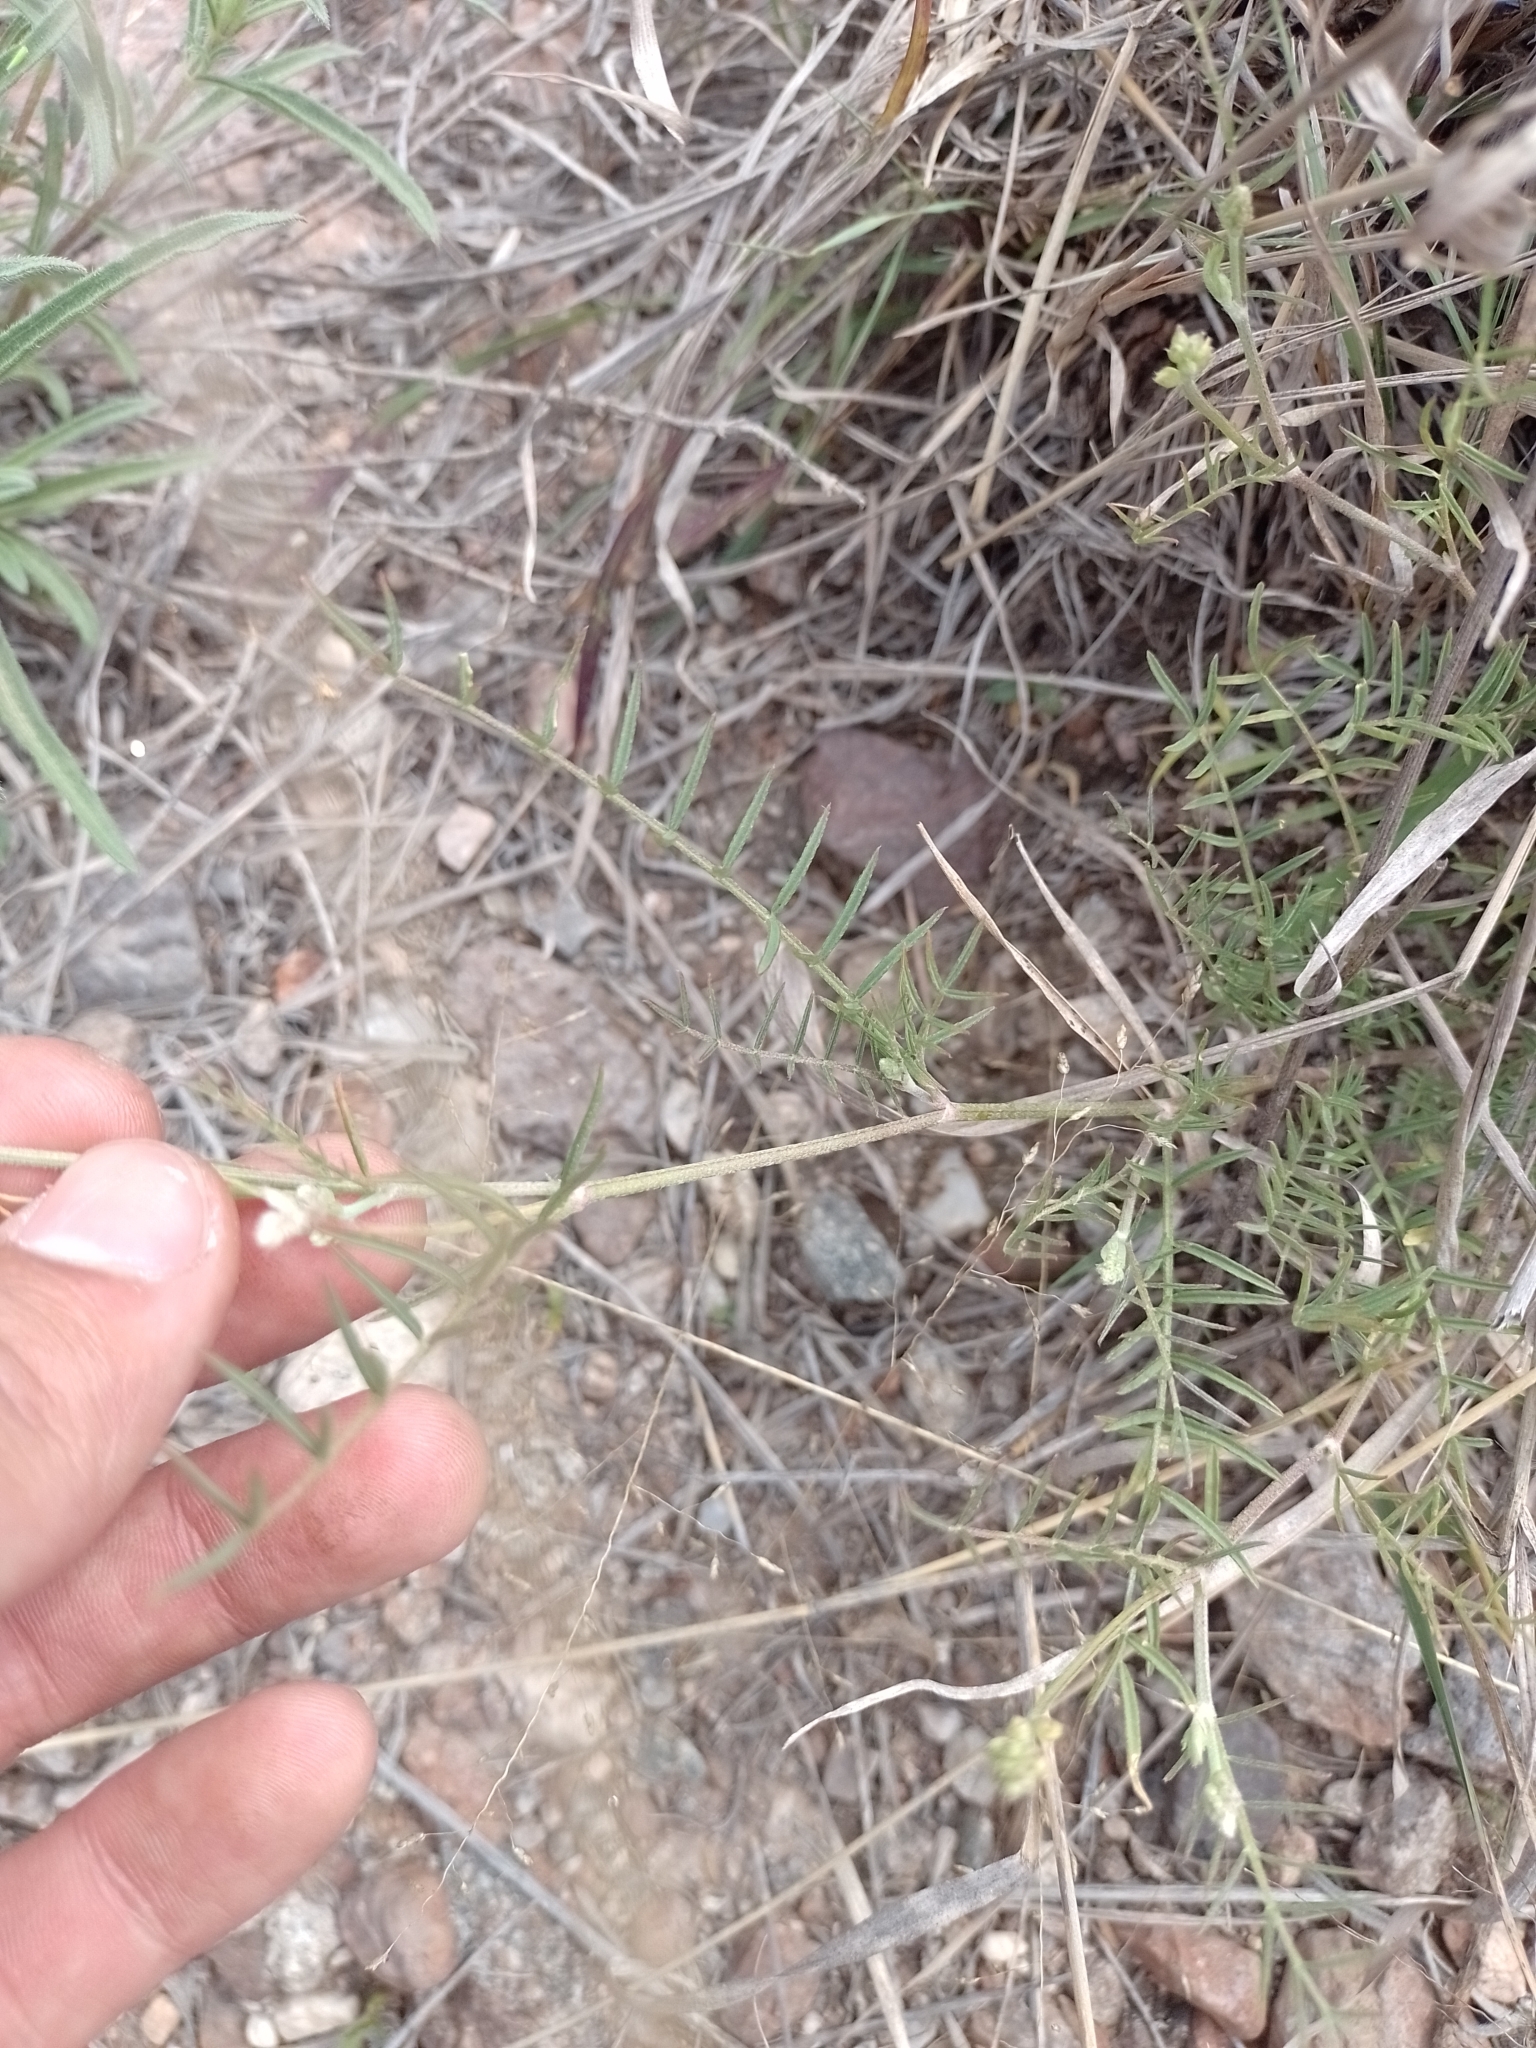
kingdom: Plantae
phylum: Tracheophyta
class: Magnoliopsida
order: Fabales
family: Fabaceae
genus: Astragalus
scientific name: Astragalus bergii
